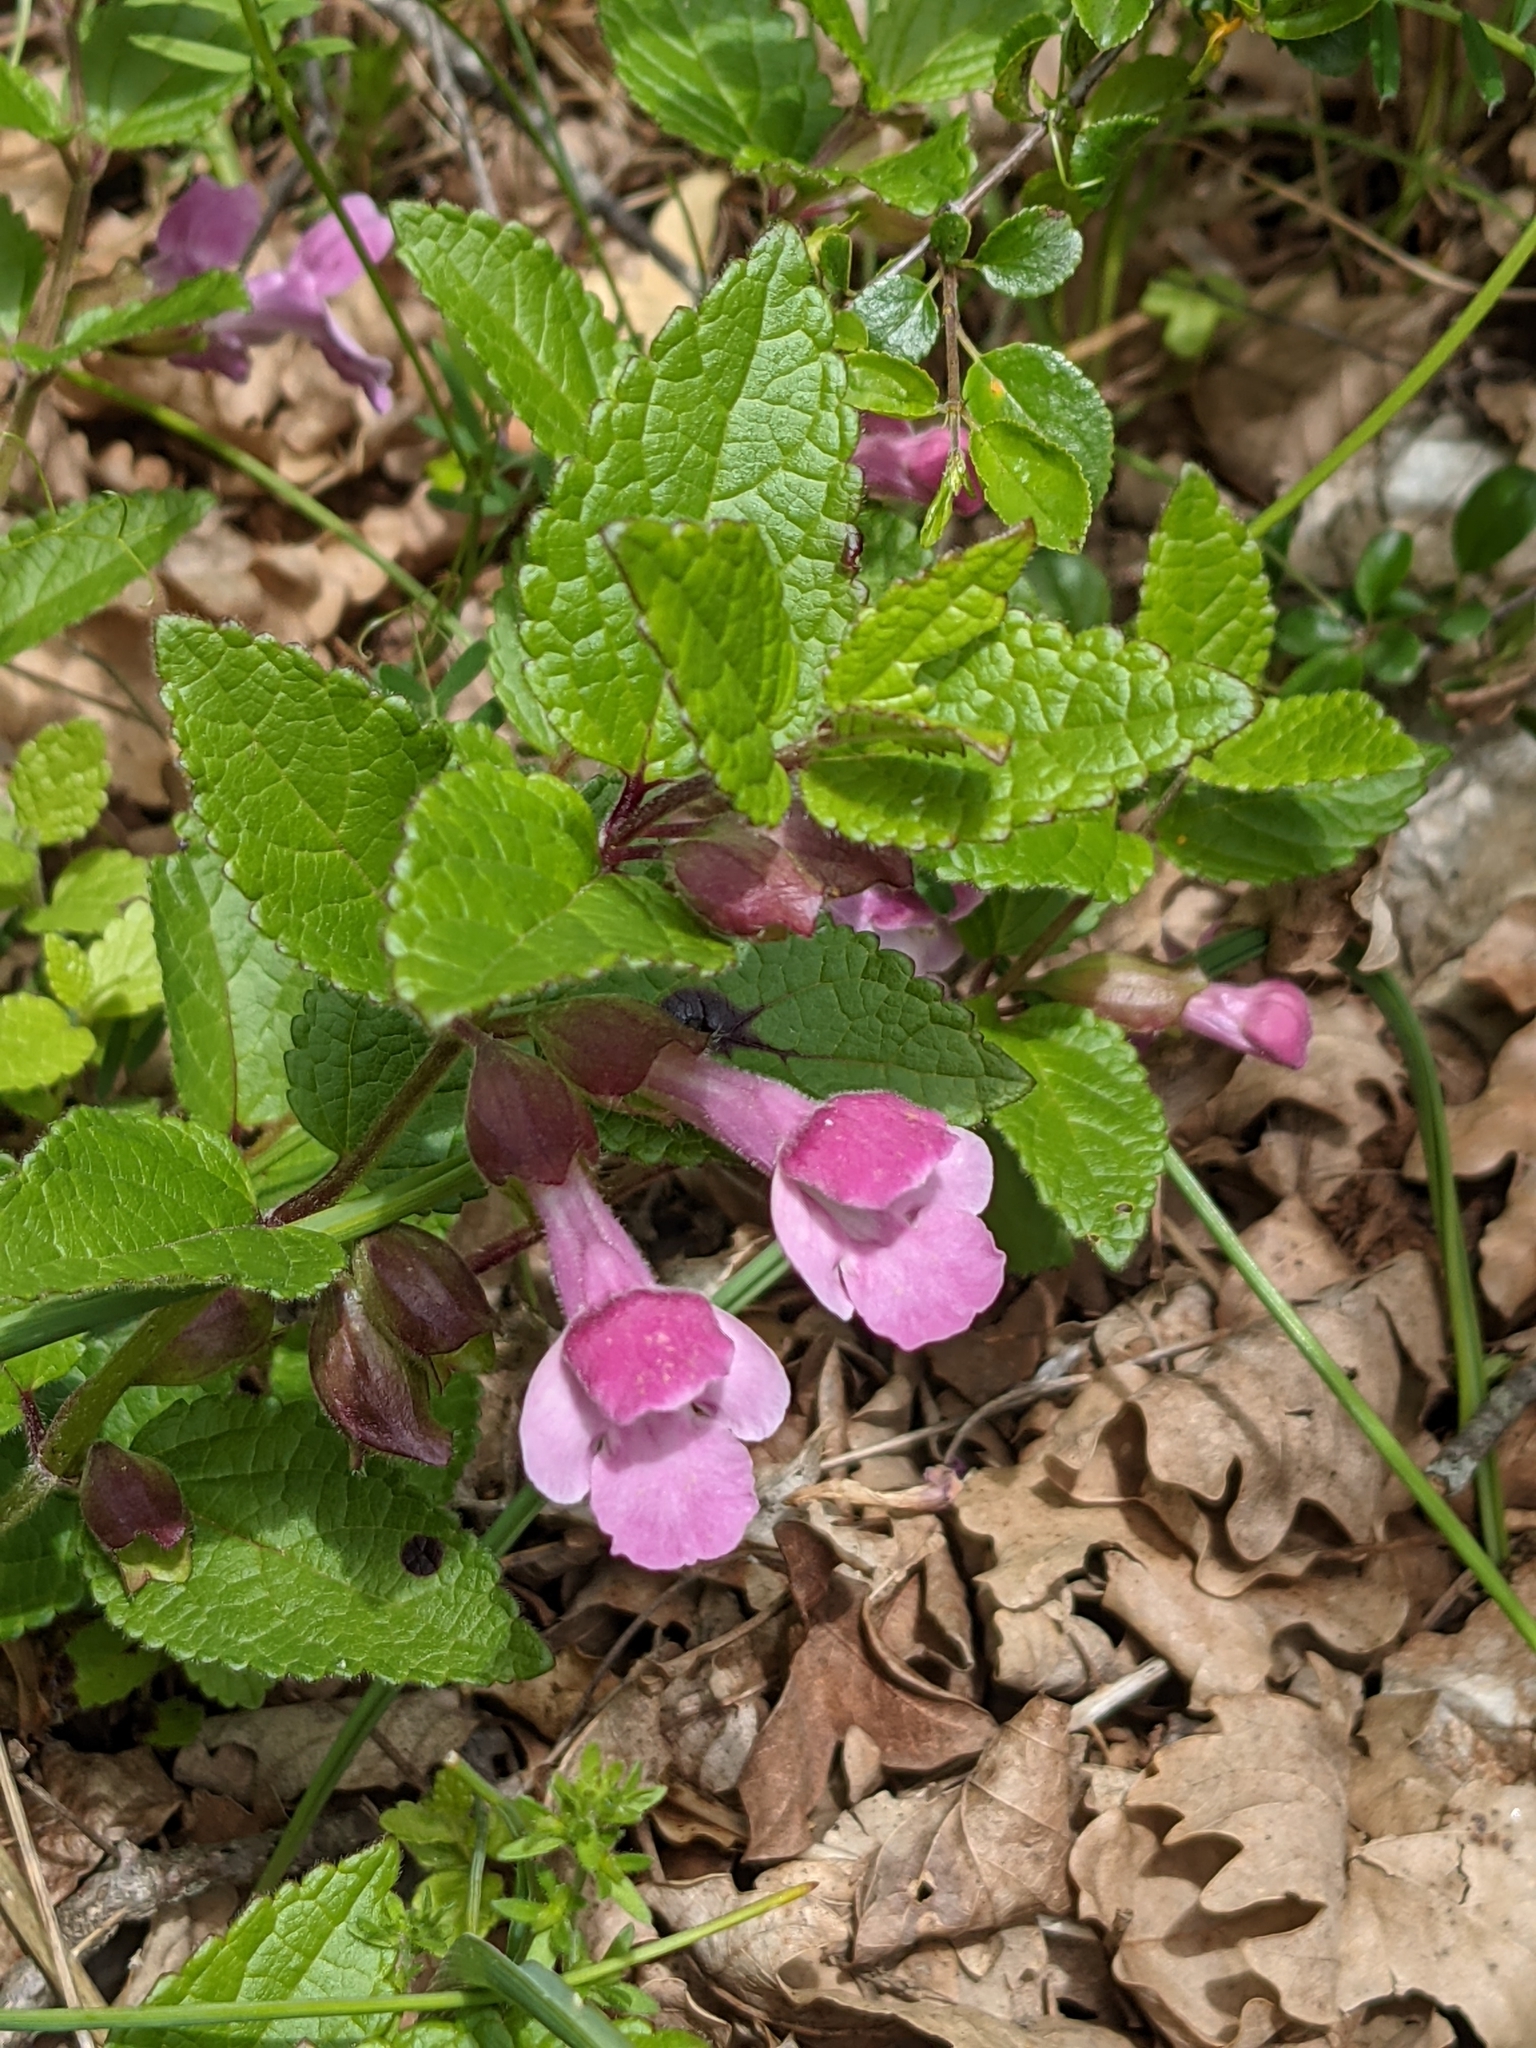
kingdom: Plantae
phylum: Tracheophyta
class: Magnoliopsida
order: Lamiales
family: Lamiaceae
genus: Melittis
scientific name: Melittis melissophyllum
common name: Bastard balm
